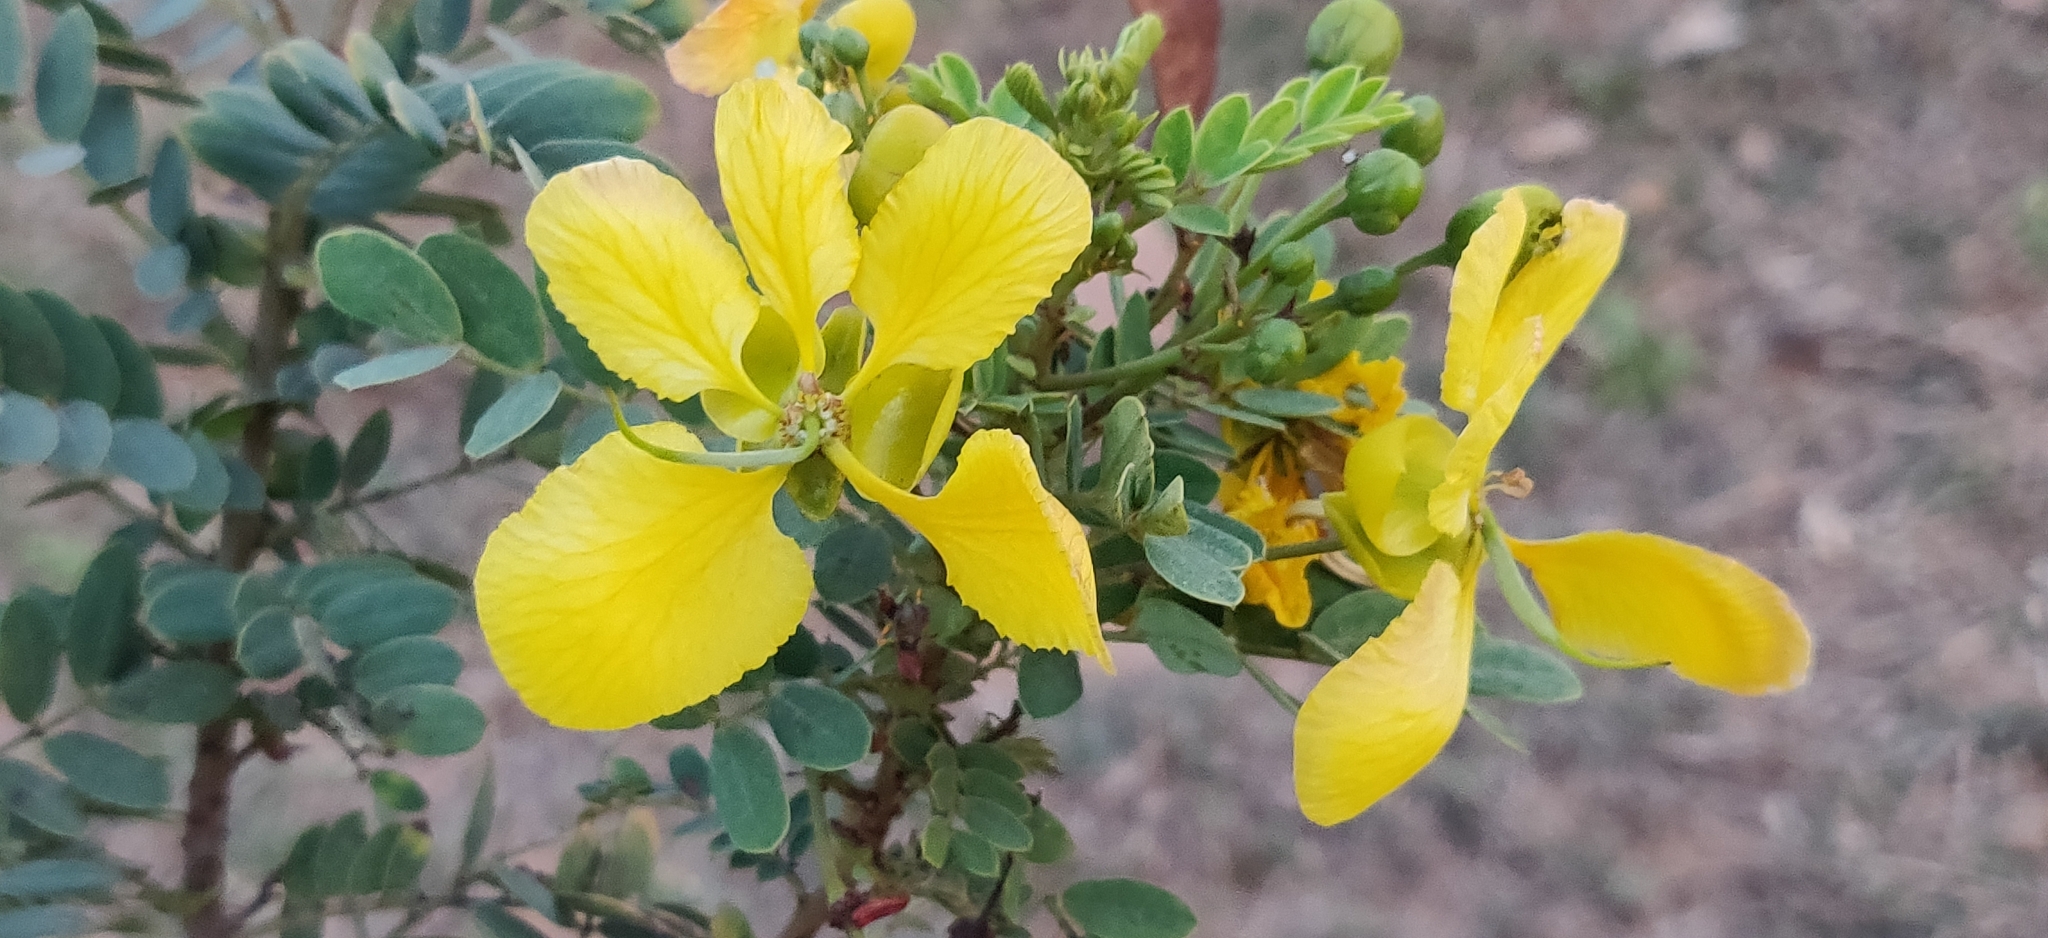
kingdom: Plantae
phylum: Tracheophyta
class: Magnoliopsida
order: Fabales
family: Fabaceae
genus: Senna
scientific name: Senna auriculata
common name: Tanner's cassia
